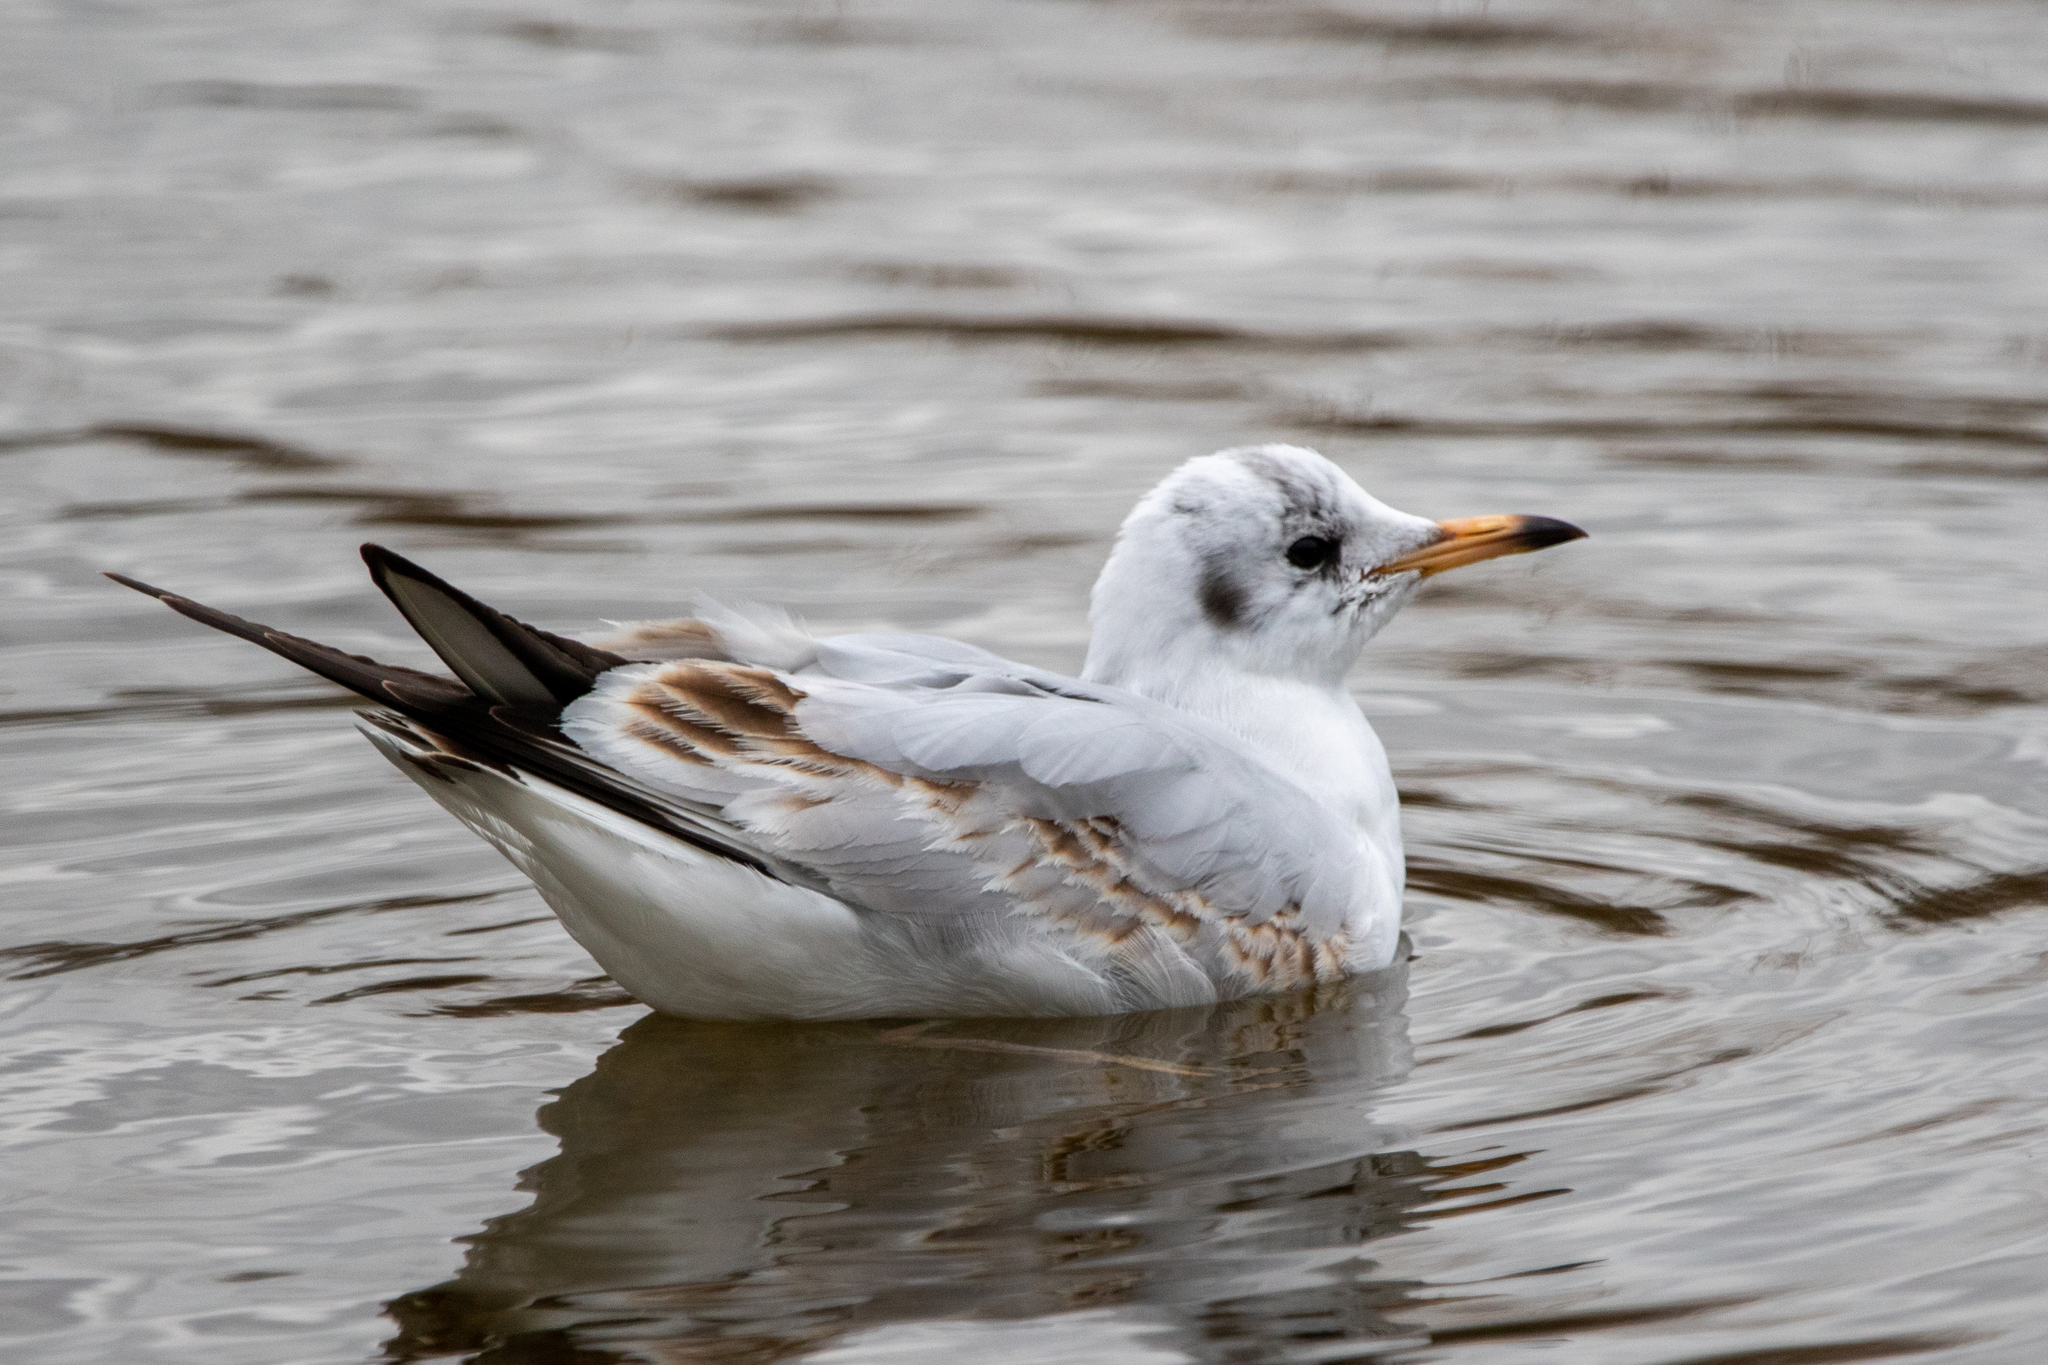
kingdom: Animalia
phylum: Chordata
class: Aves
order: Charadriiformes
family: Laridae
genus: Chroicocephalus
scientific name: Chroicocephalus ridibundus
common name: Black-headed gull
